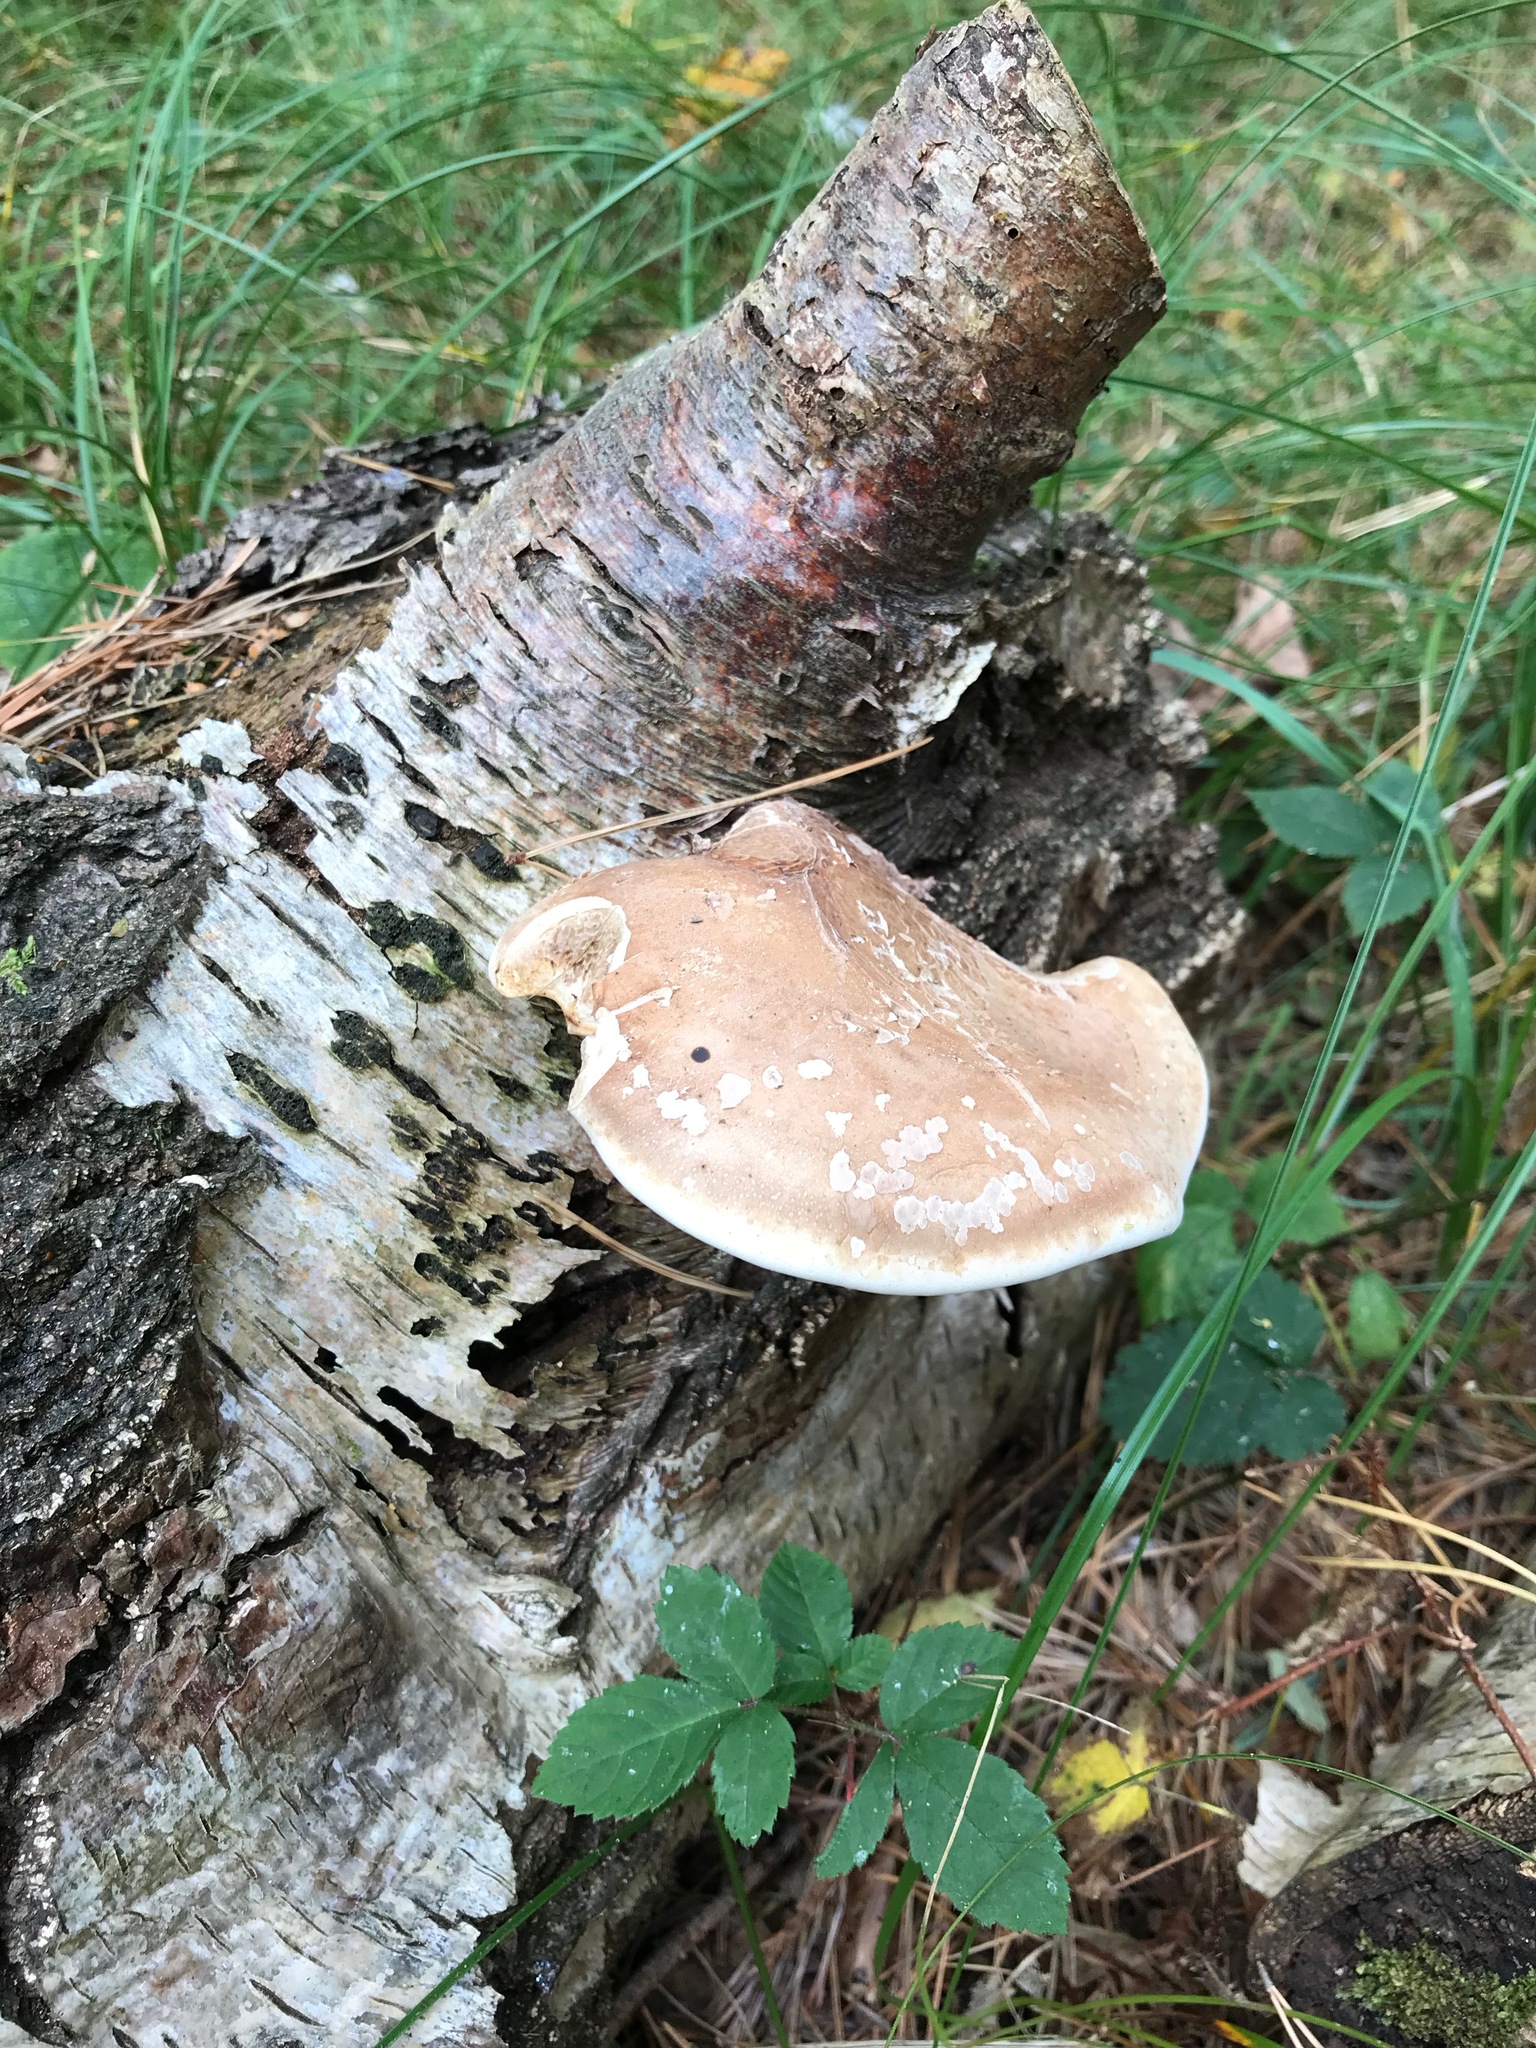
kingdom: Fungi
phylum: Basidiomycota
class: Agaricomycetes
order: Polyporales
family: Fomitopsidaceae
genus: Fomitopsis
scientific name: Fomitopsis betulina
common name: Birch polypore
